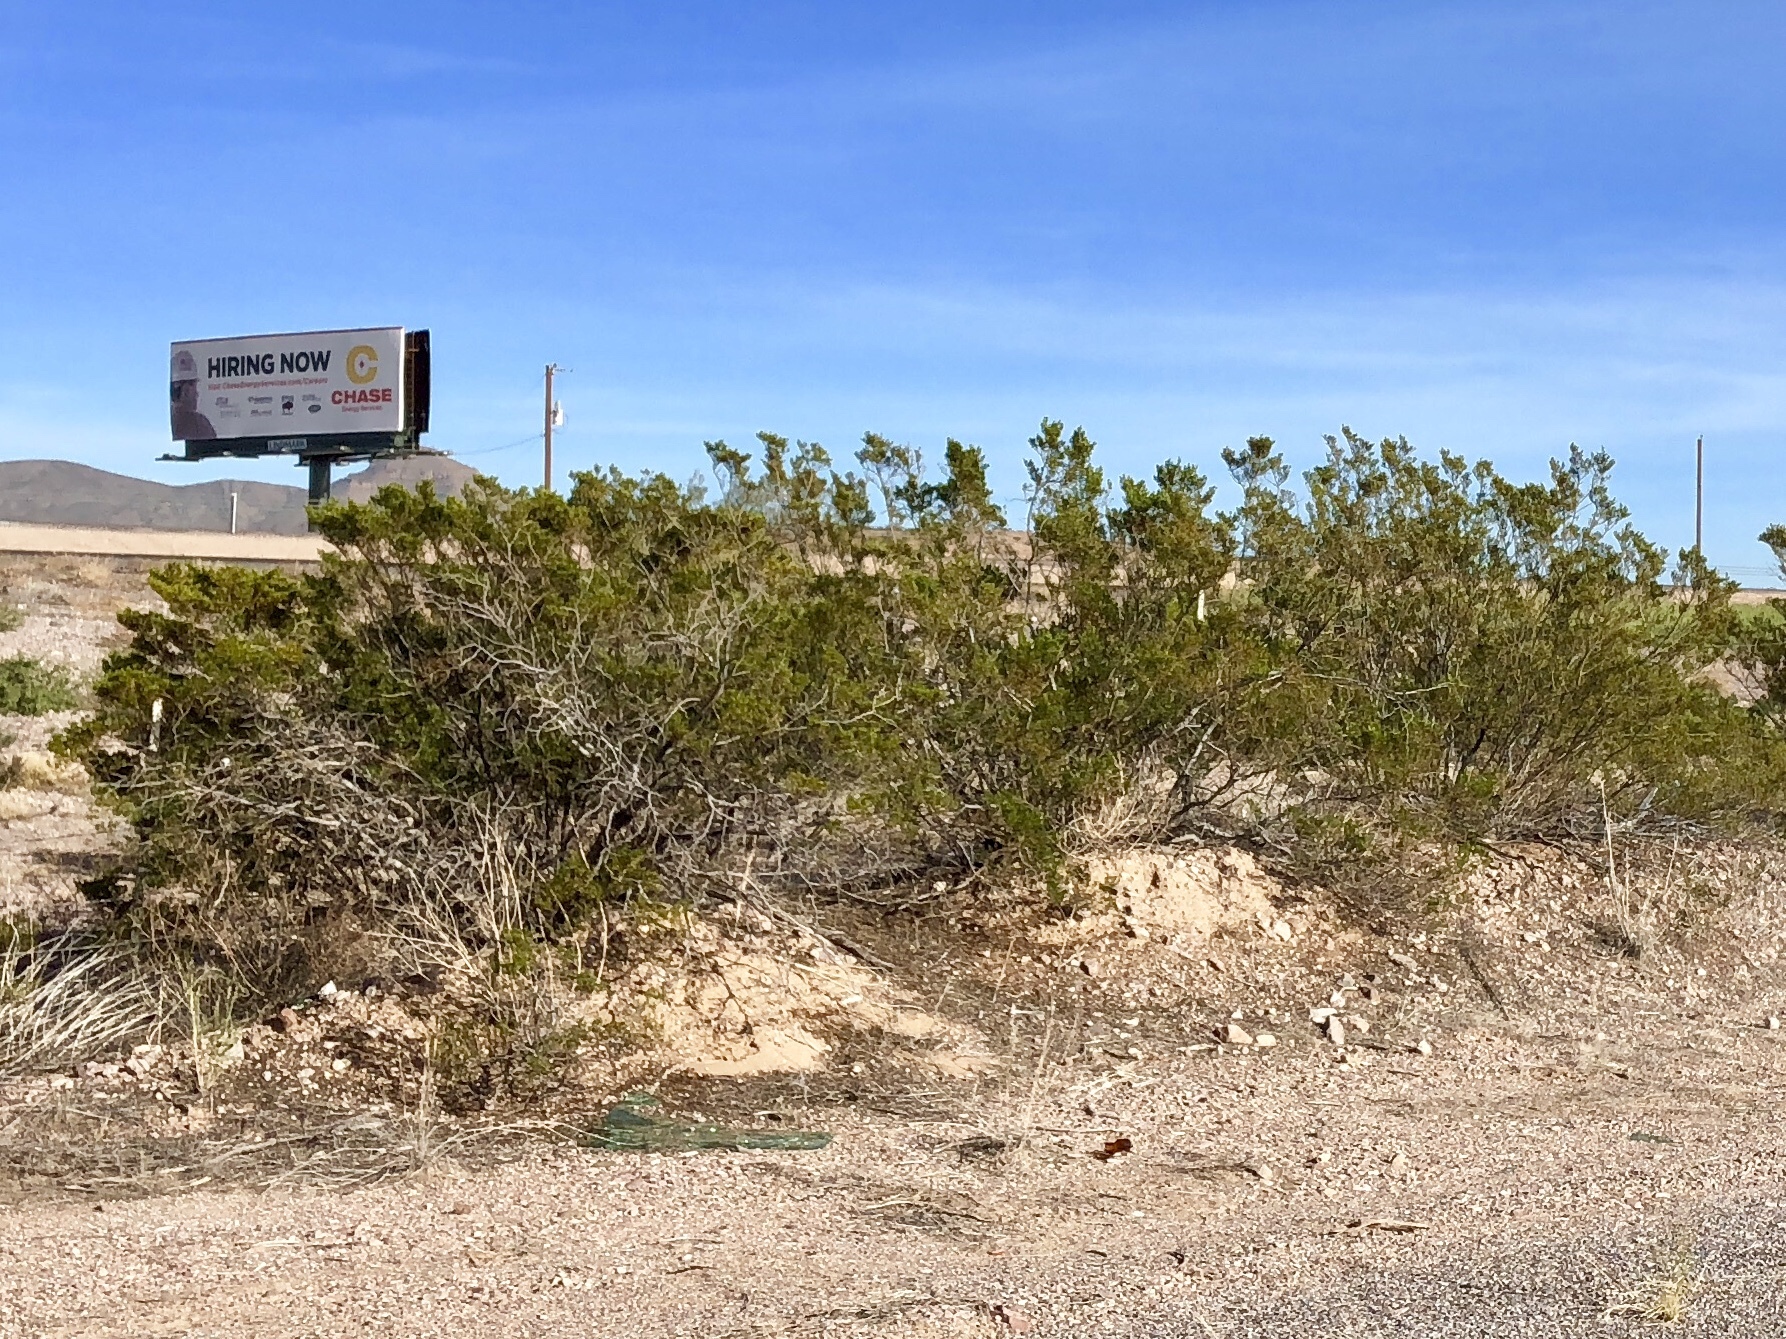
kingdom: Plantae
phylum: Tracheophyta
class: Magnoliopsida
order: Zygophyllales
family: Zygophyllaceae
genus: Larrea
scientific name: Larrea tridentata
